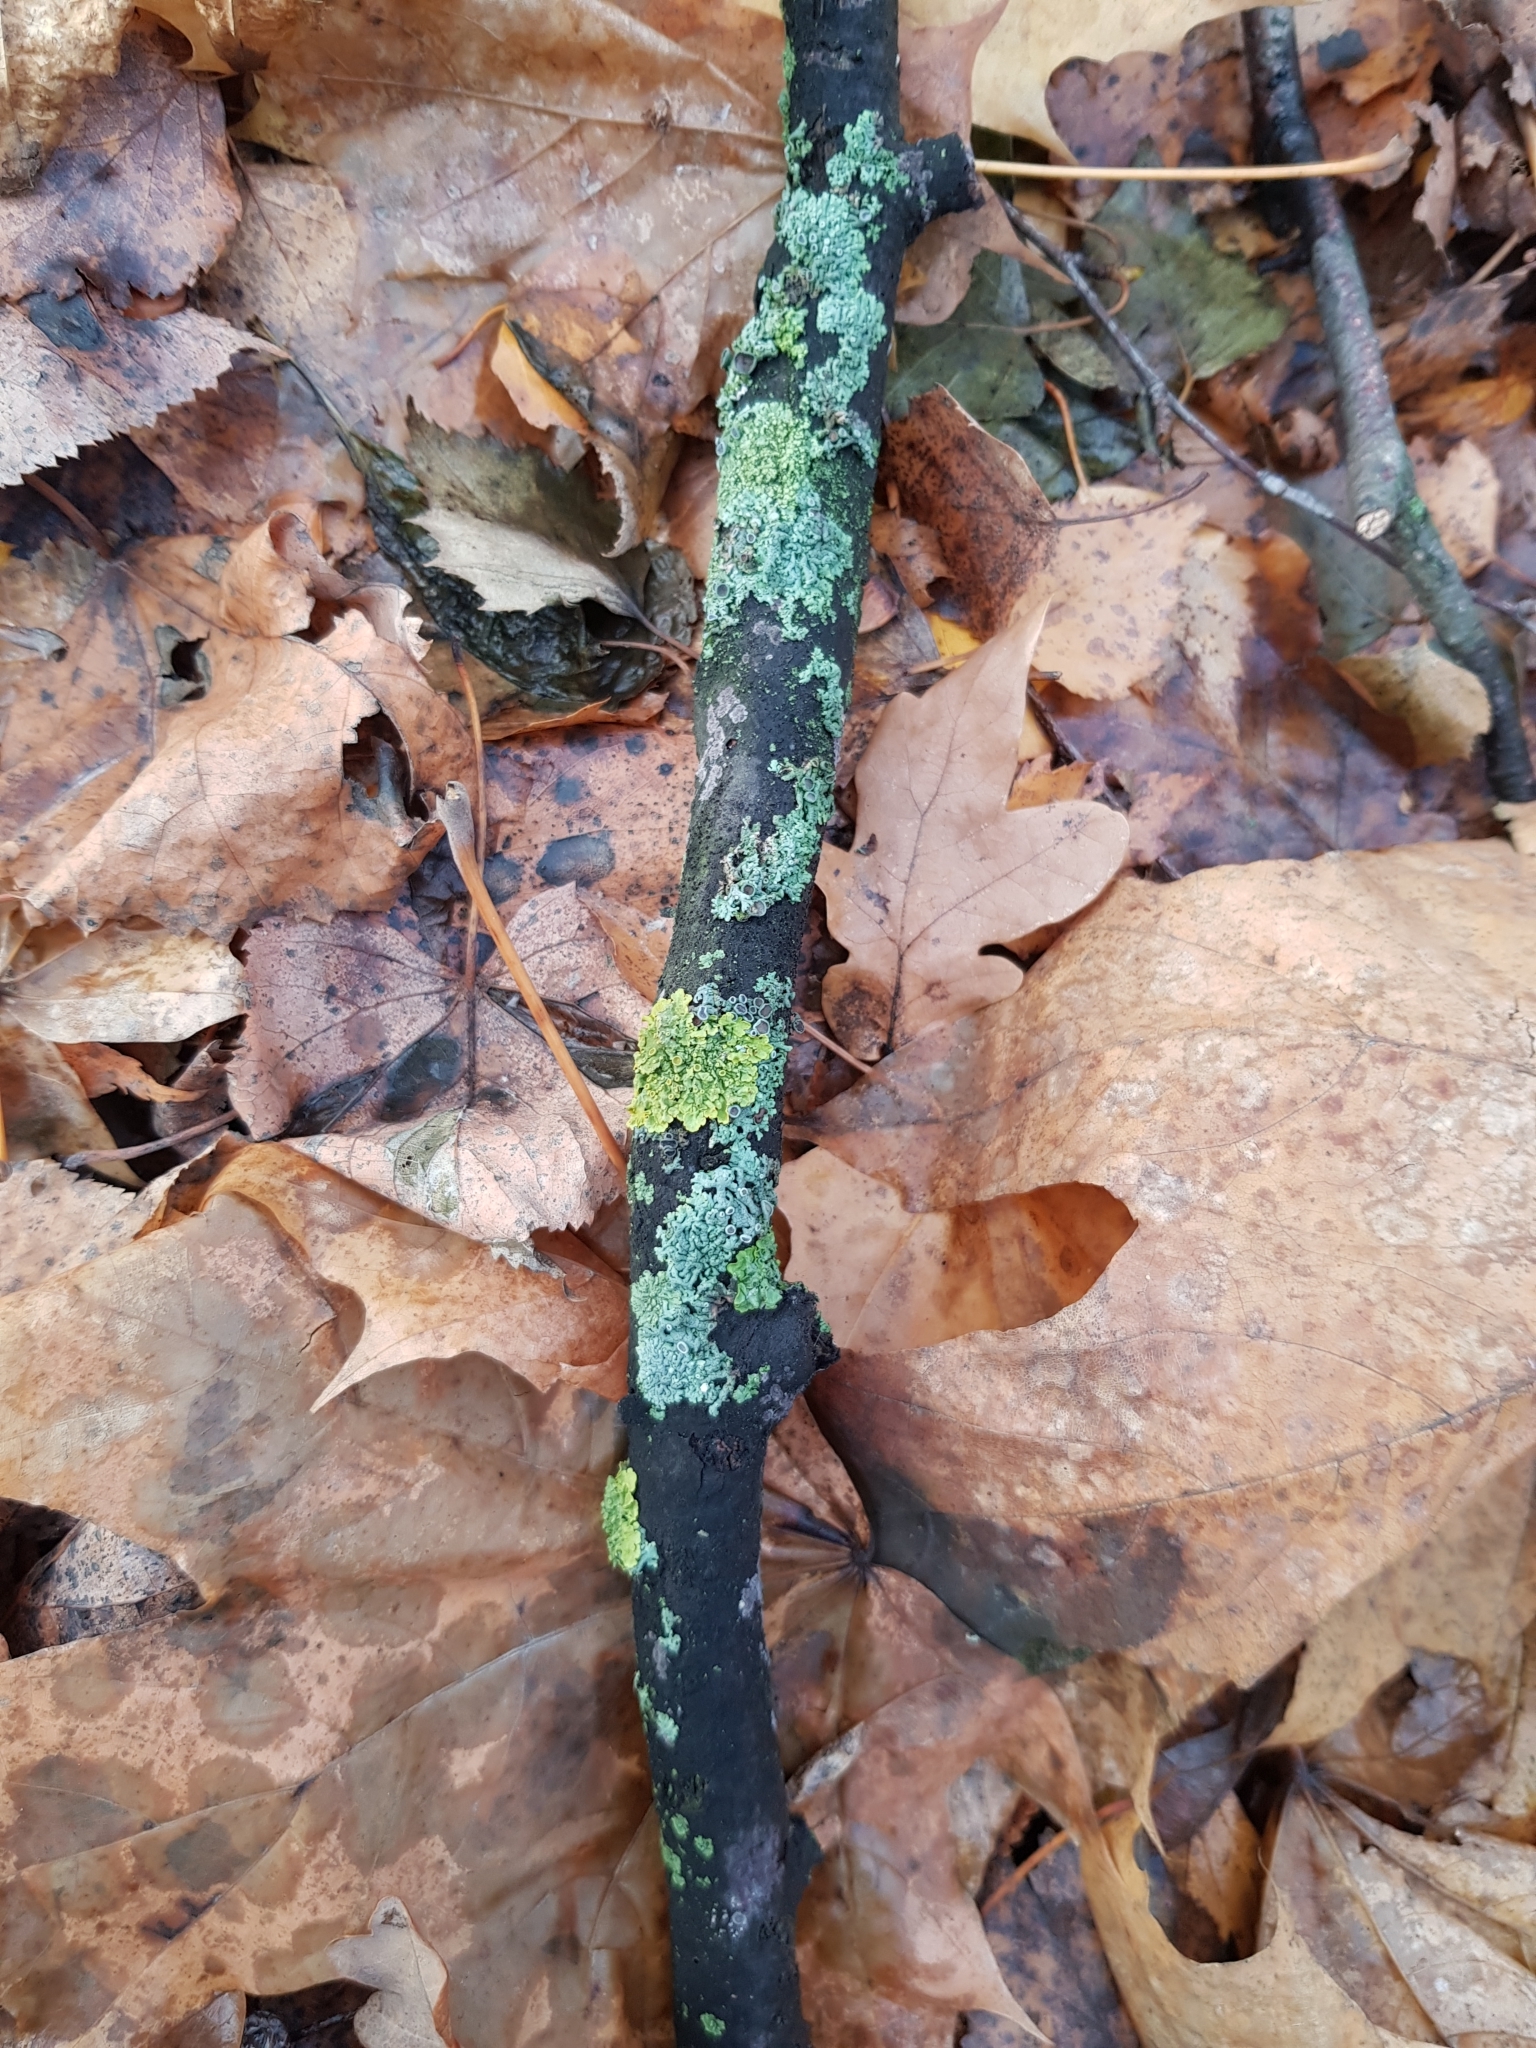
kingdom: Fungi
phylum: Ascomycota
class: Lecanoromycetes
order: Teloschistales
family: Teloschistaceae
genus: Xanthoria
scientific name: Xanthoria parietina
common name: Common orange lichen
